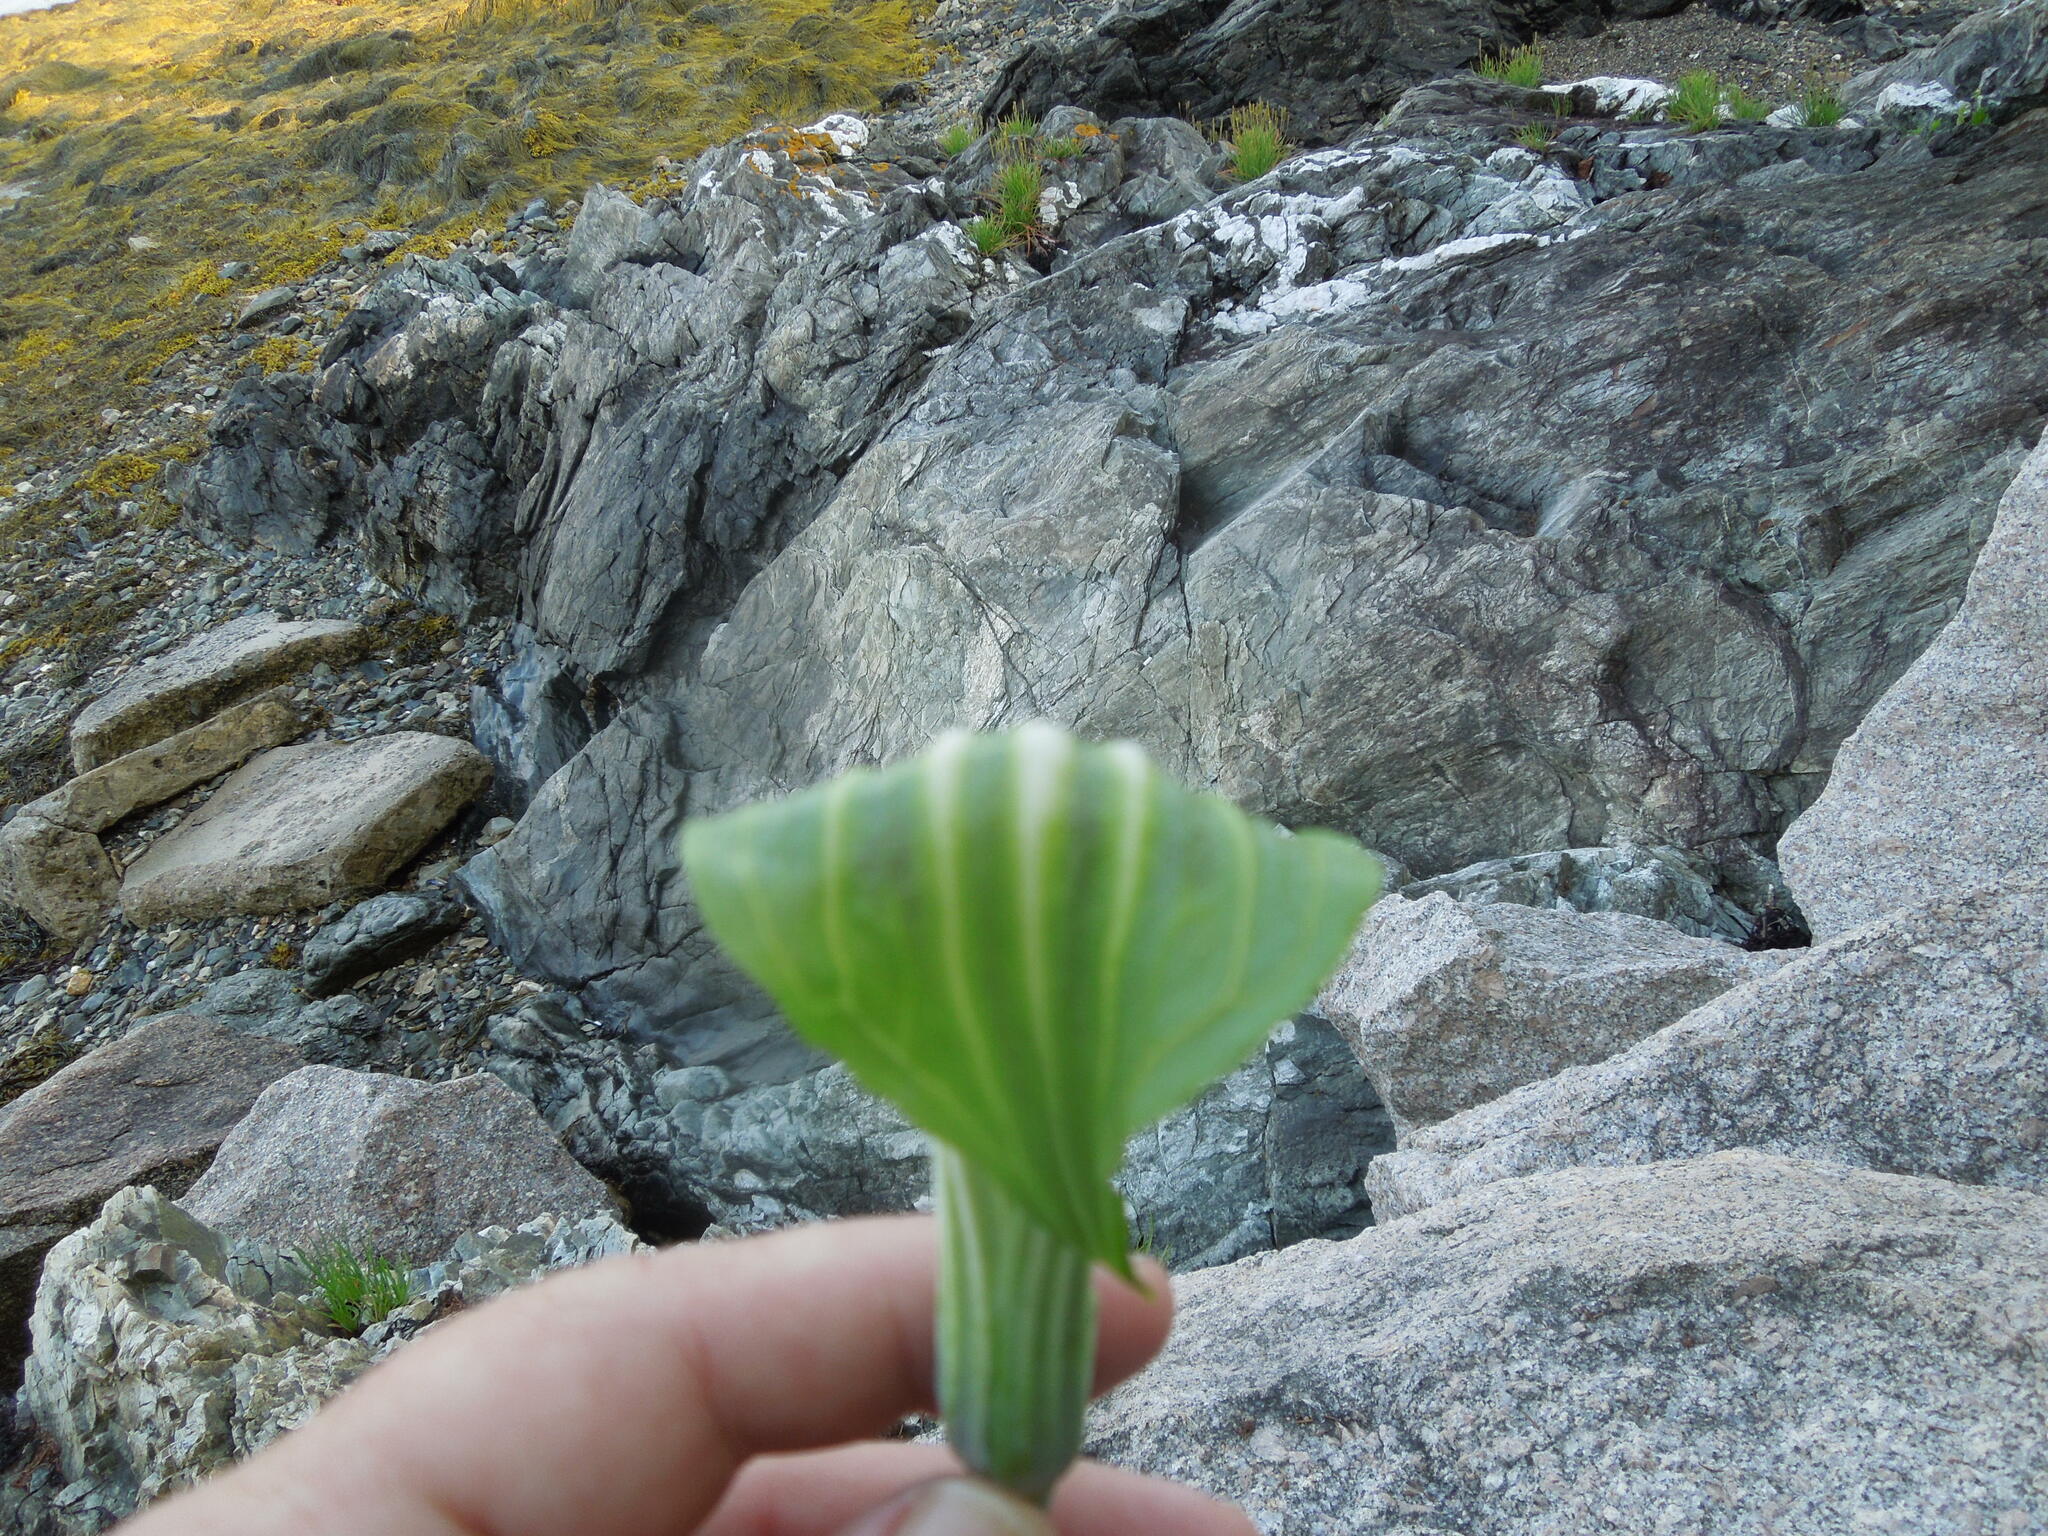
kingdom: Plantae
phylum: Tracheophyta
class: Liliopsida
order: Alismatales
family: Araceae
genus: Arisaema
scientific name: Arisaema stewardsonii
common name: Swamp jack-in-the-pulpit
